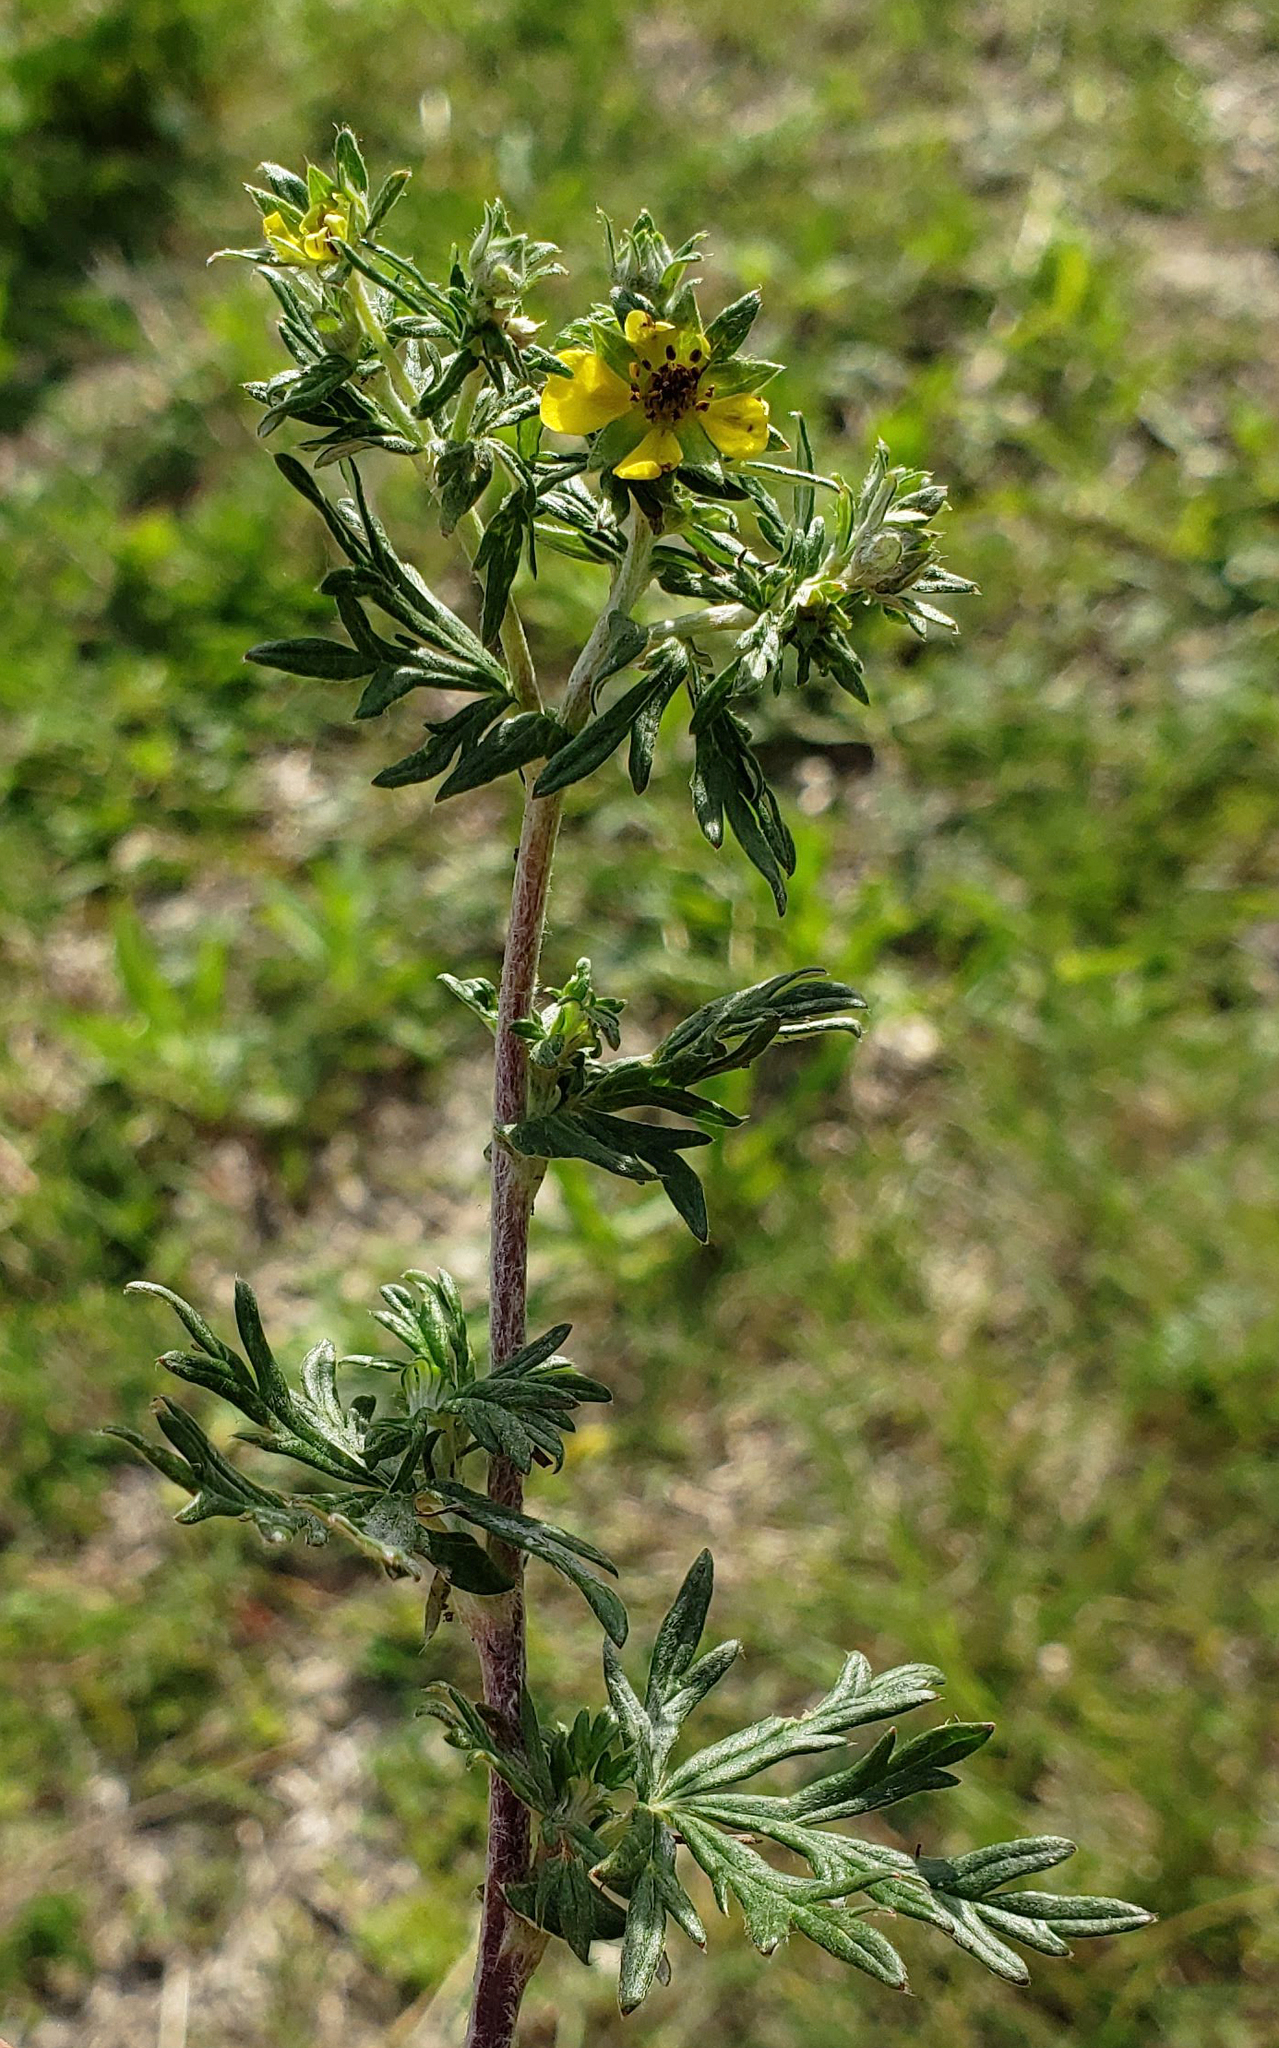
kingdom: Plantae
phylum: Tracheophyta
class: Magnoliopsida
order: Rosales
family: Rosaceae
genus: Potentilla
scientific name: Potentilla argentea
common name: Hoary cinquefoil
